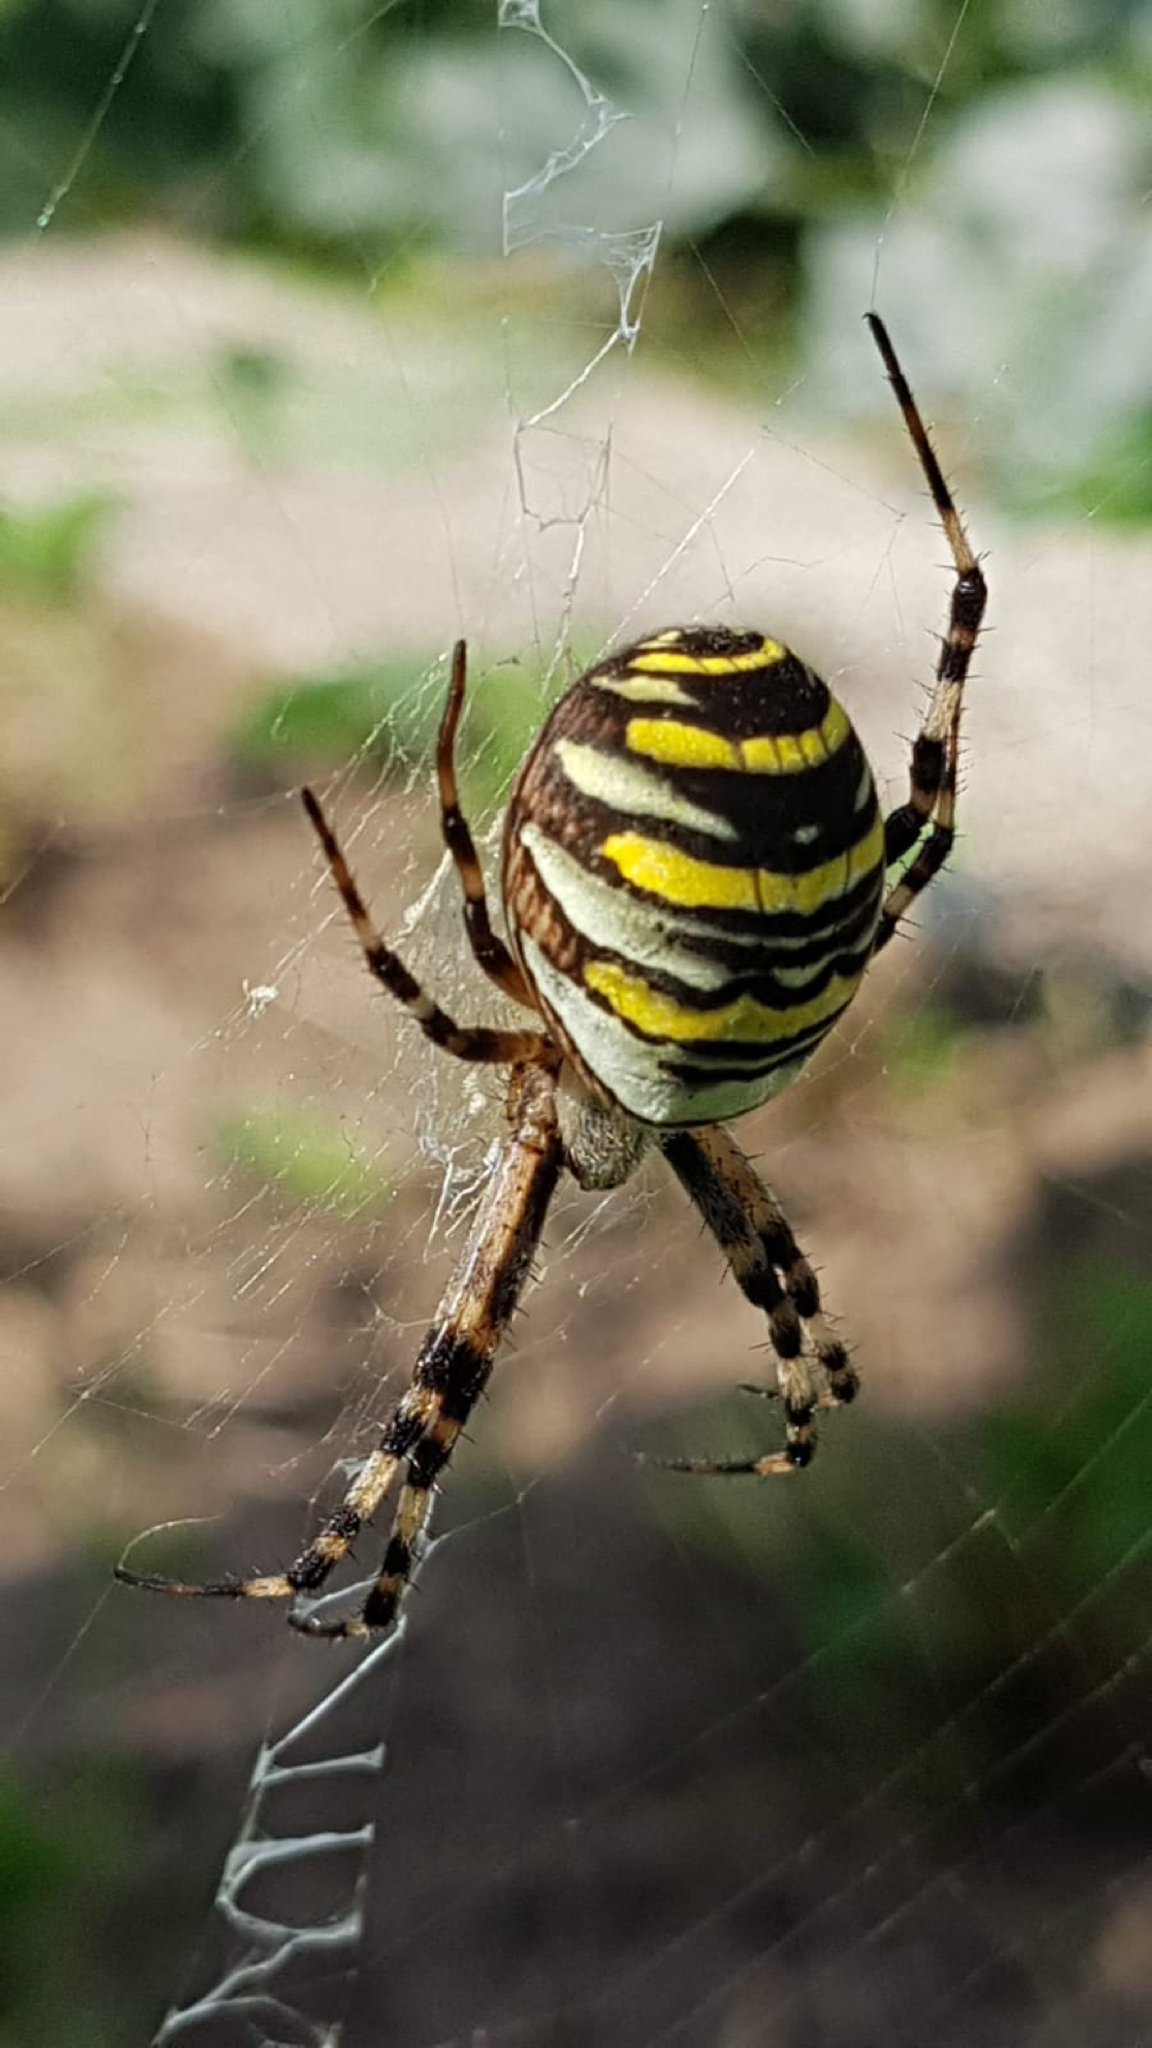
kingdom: Animalia
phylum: Arthropoda
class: Arachnida
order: Araneae
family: Araneidae
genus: Argiope
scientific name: Argiope bruennichi
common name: Wasp spider
